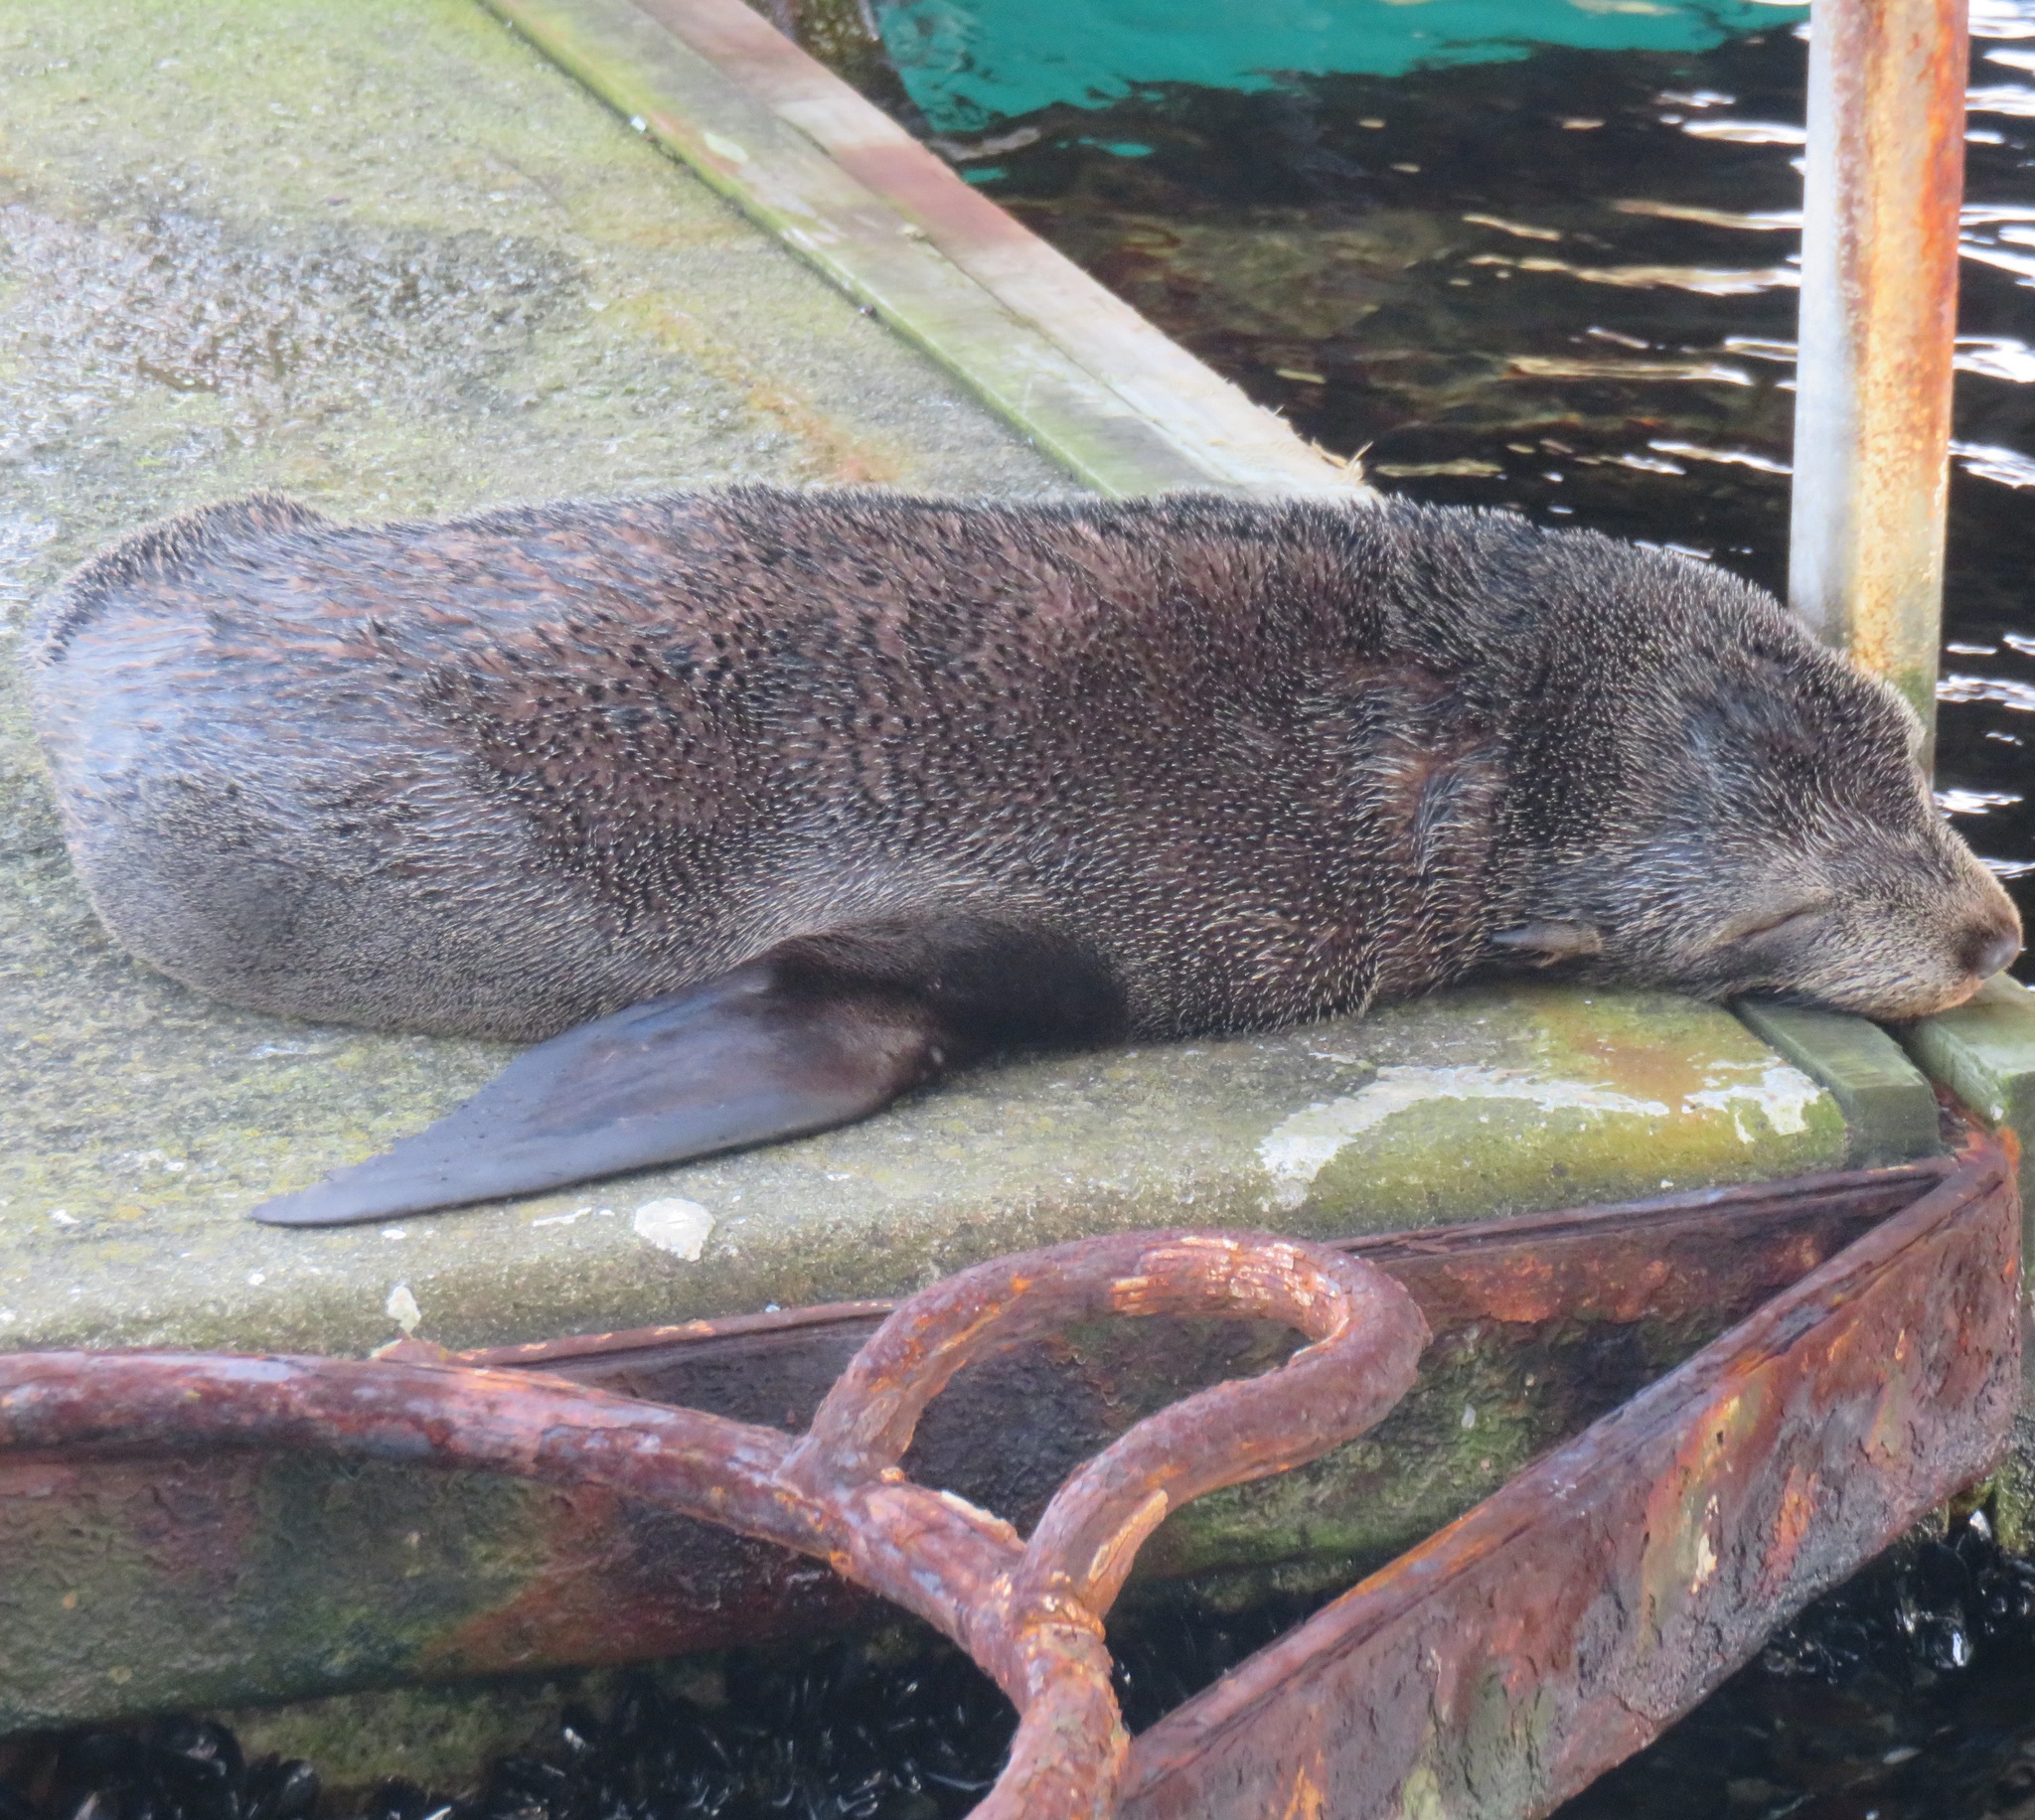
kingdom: Animalia
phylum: Chordata
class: Mammalia
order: Carnivora
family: Otariidae
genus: Arctocephalus
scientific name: Arctocephalus forsteri
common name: New zealand fur seal
